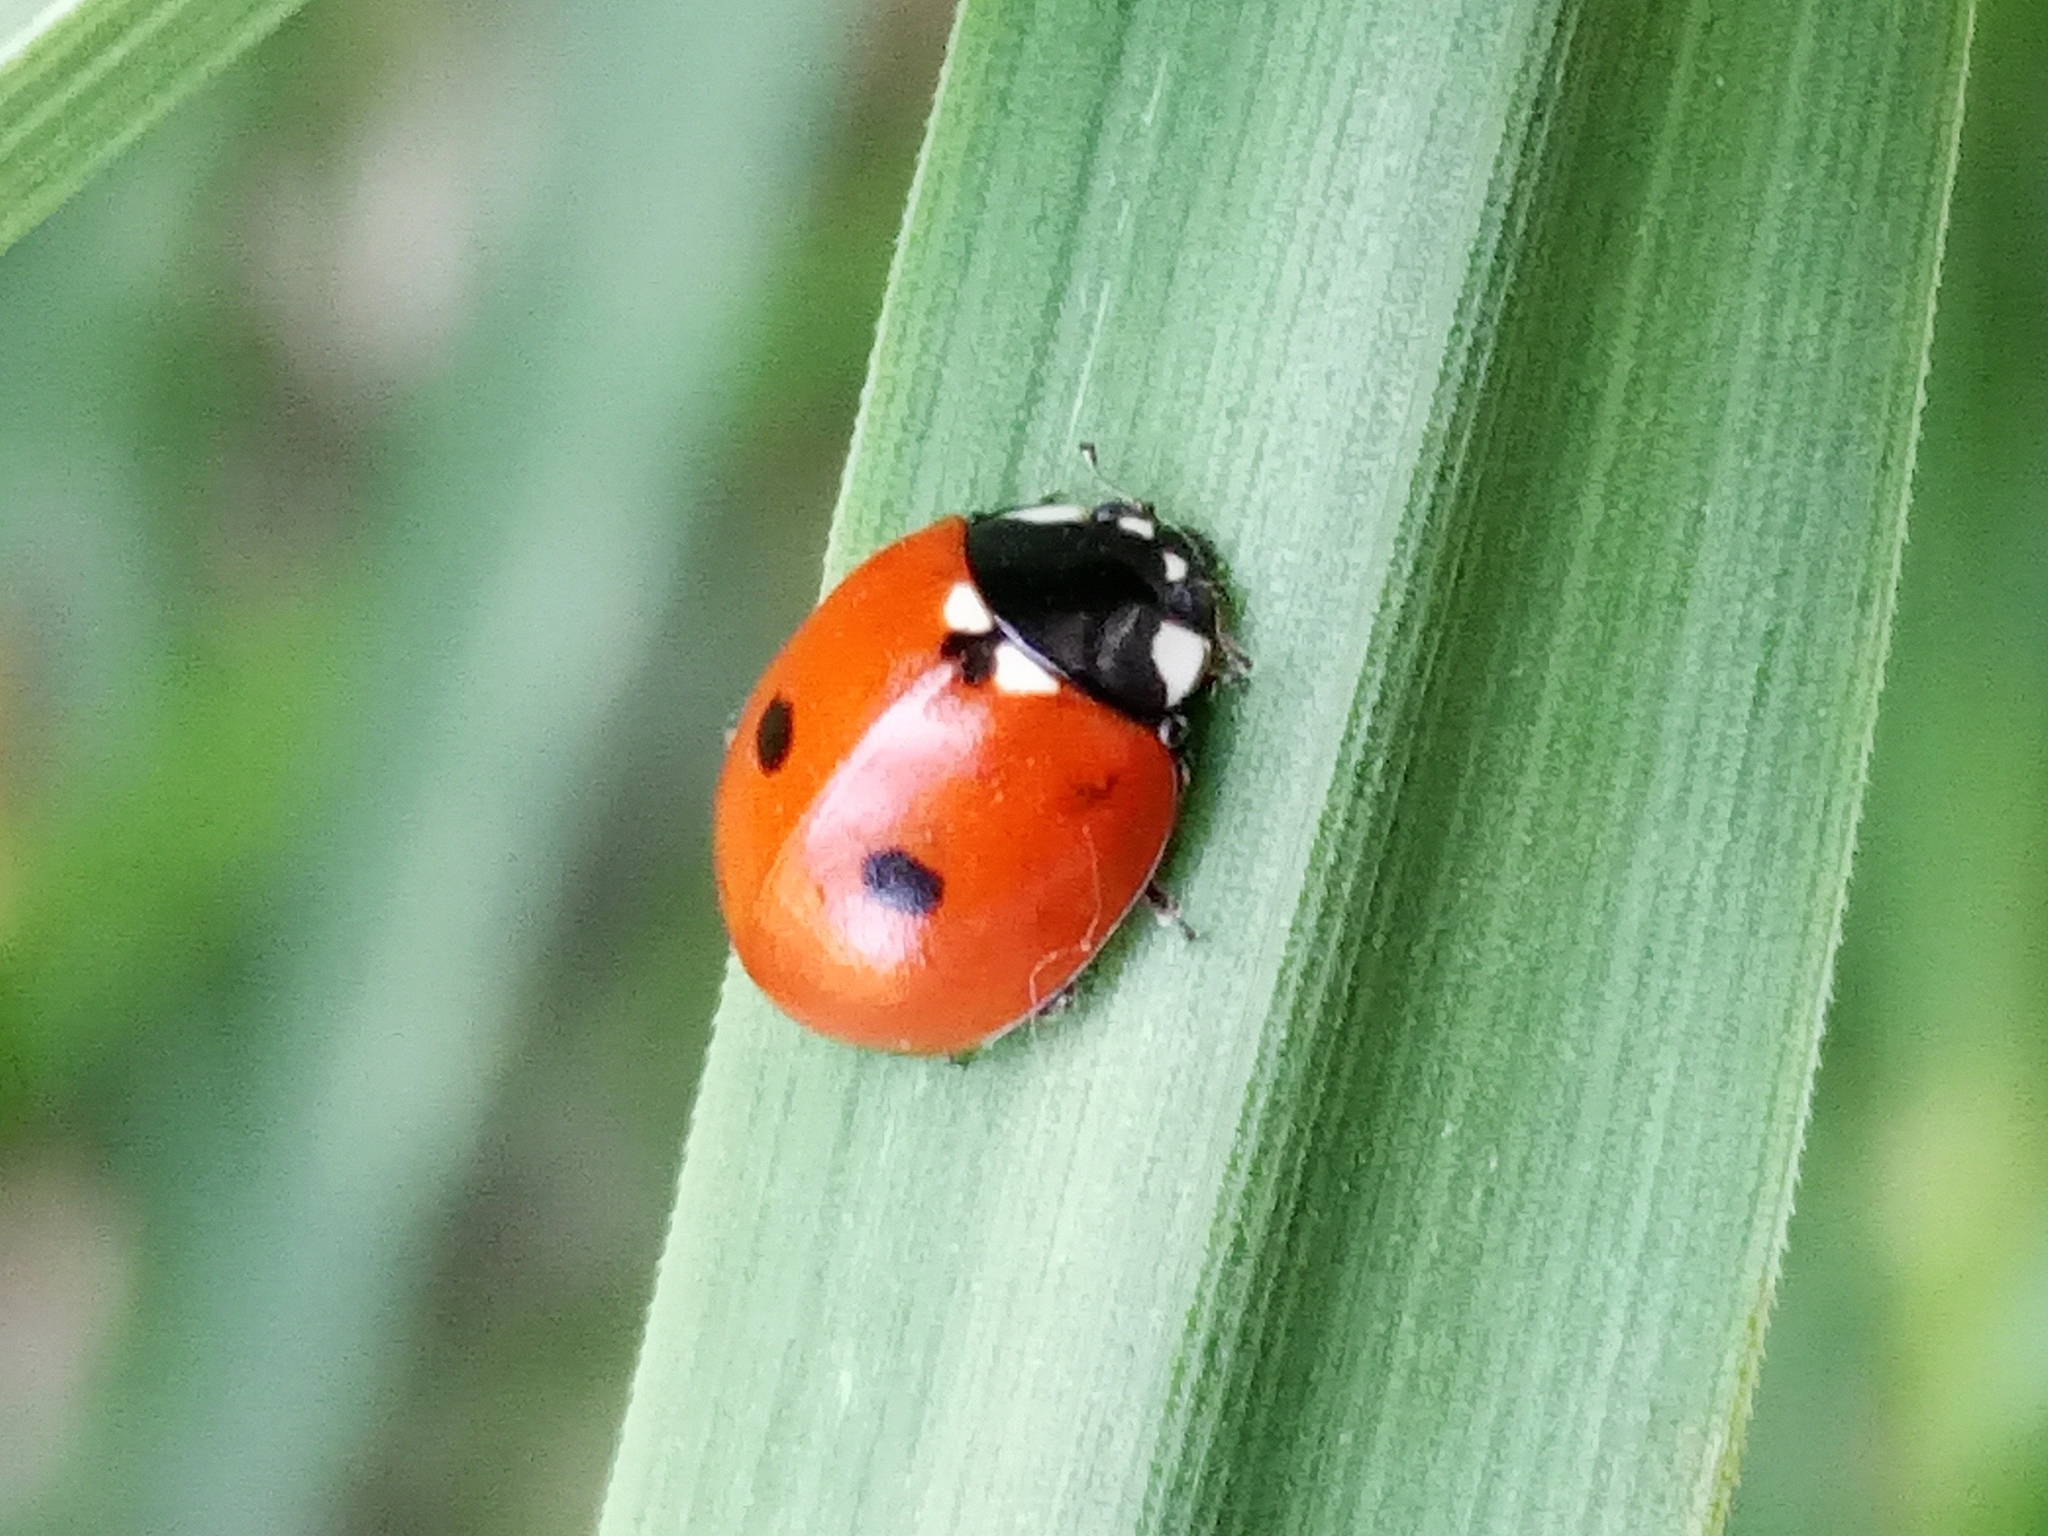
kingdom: Animalia
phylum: Arthropoda
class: Insecta
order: Coleoptera
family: Coccinellidae
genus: Coccinella
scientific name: Coccinella saucerottii
